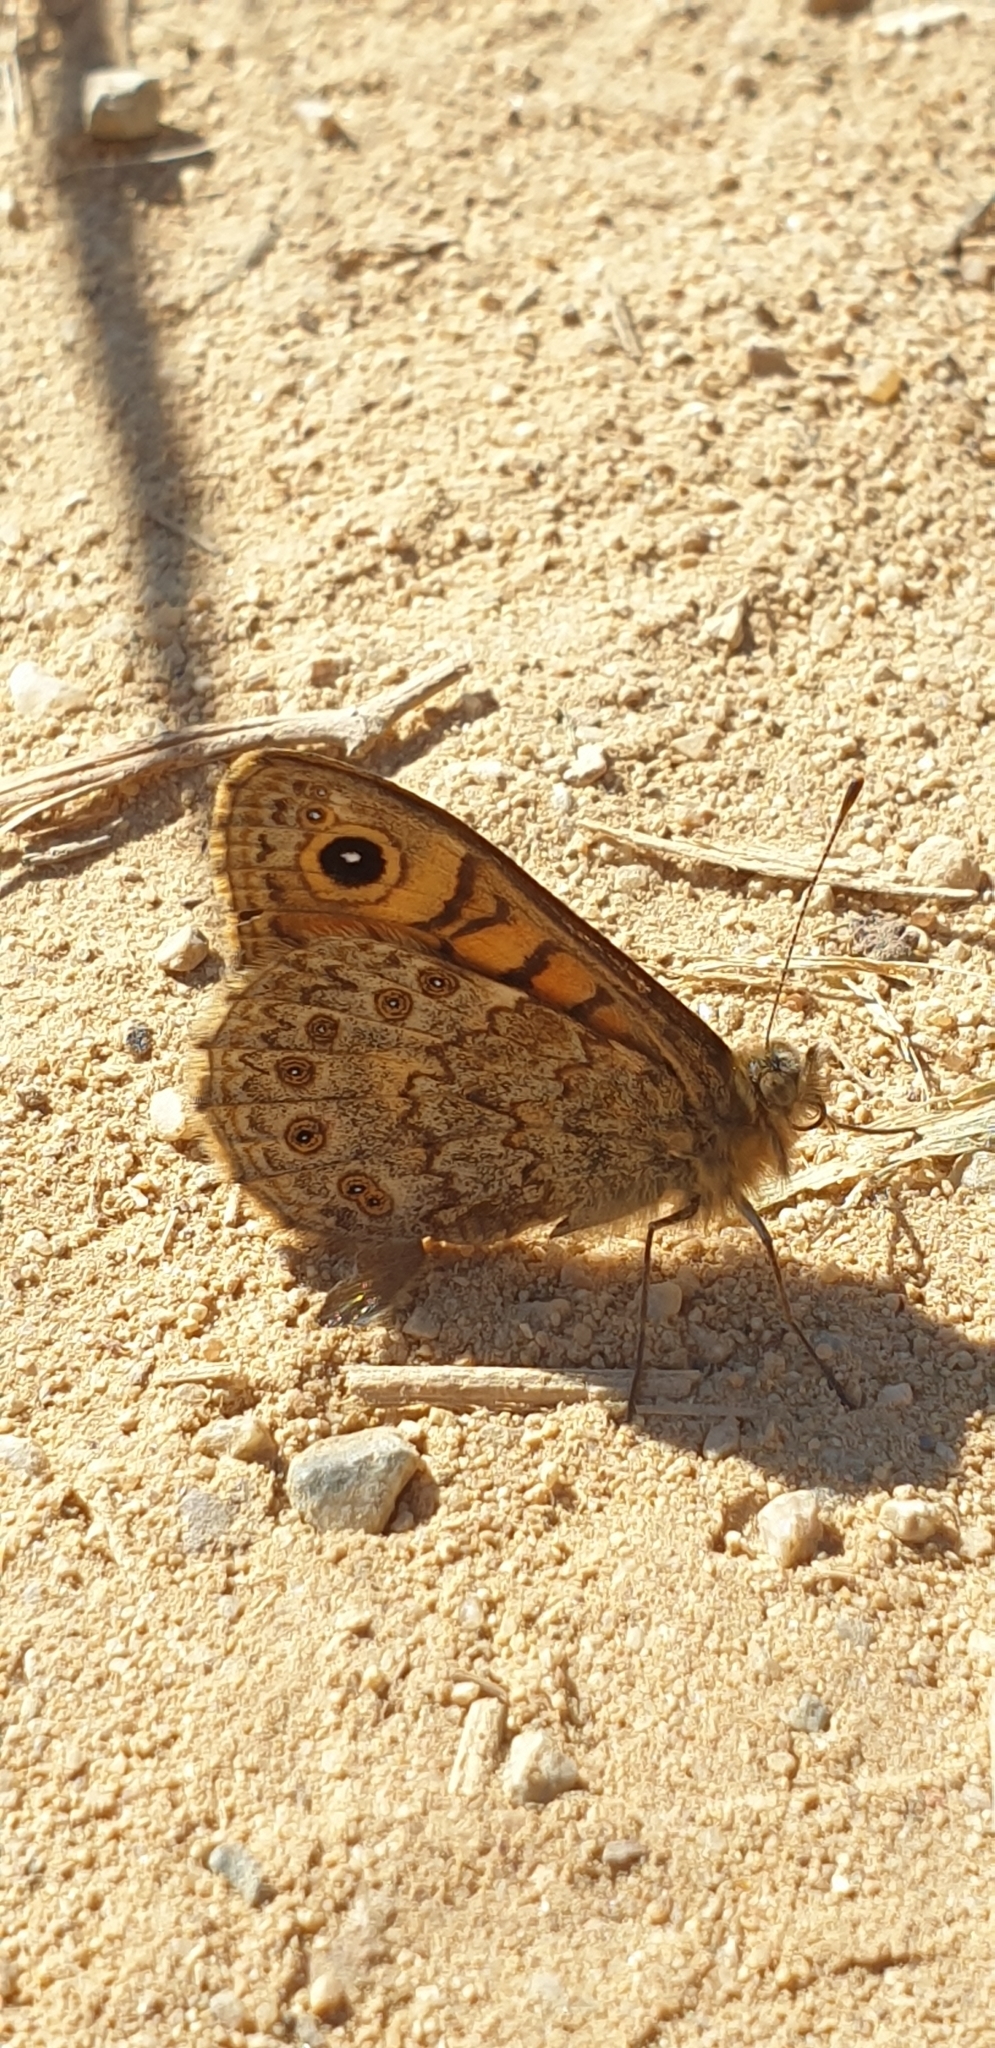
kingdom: Animalia
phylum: Arthropoda
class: Insecta
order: Lepidoptera
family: Nymphalidae
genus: Pararge
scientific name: Pararge Lasiommata megera
